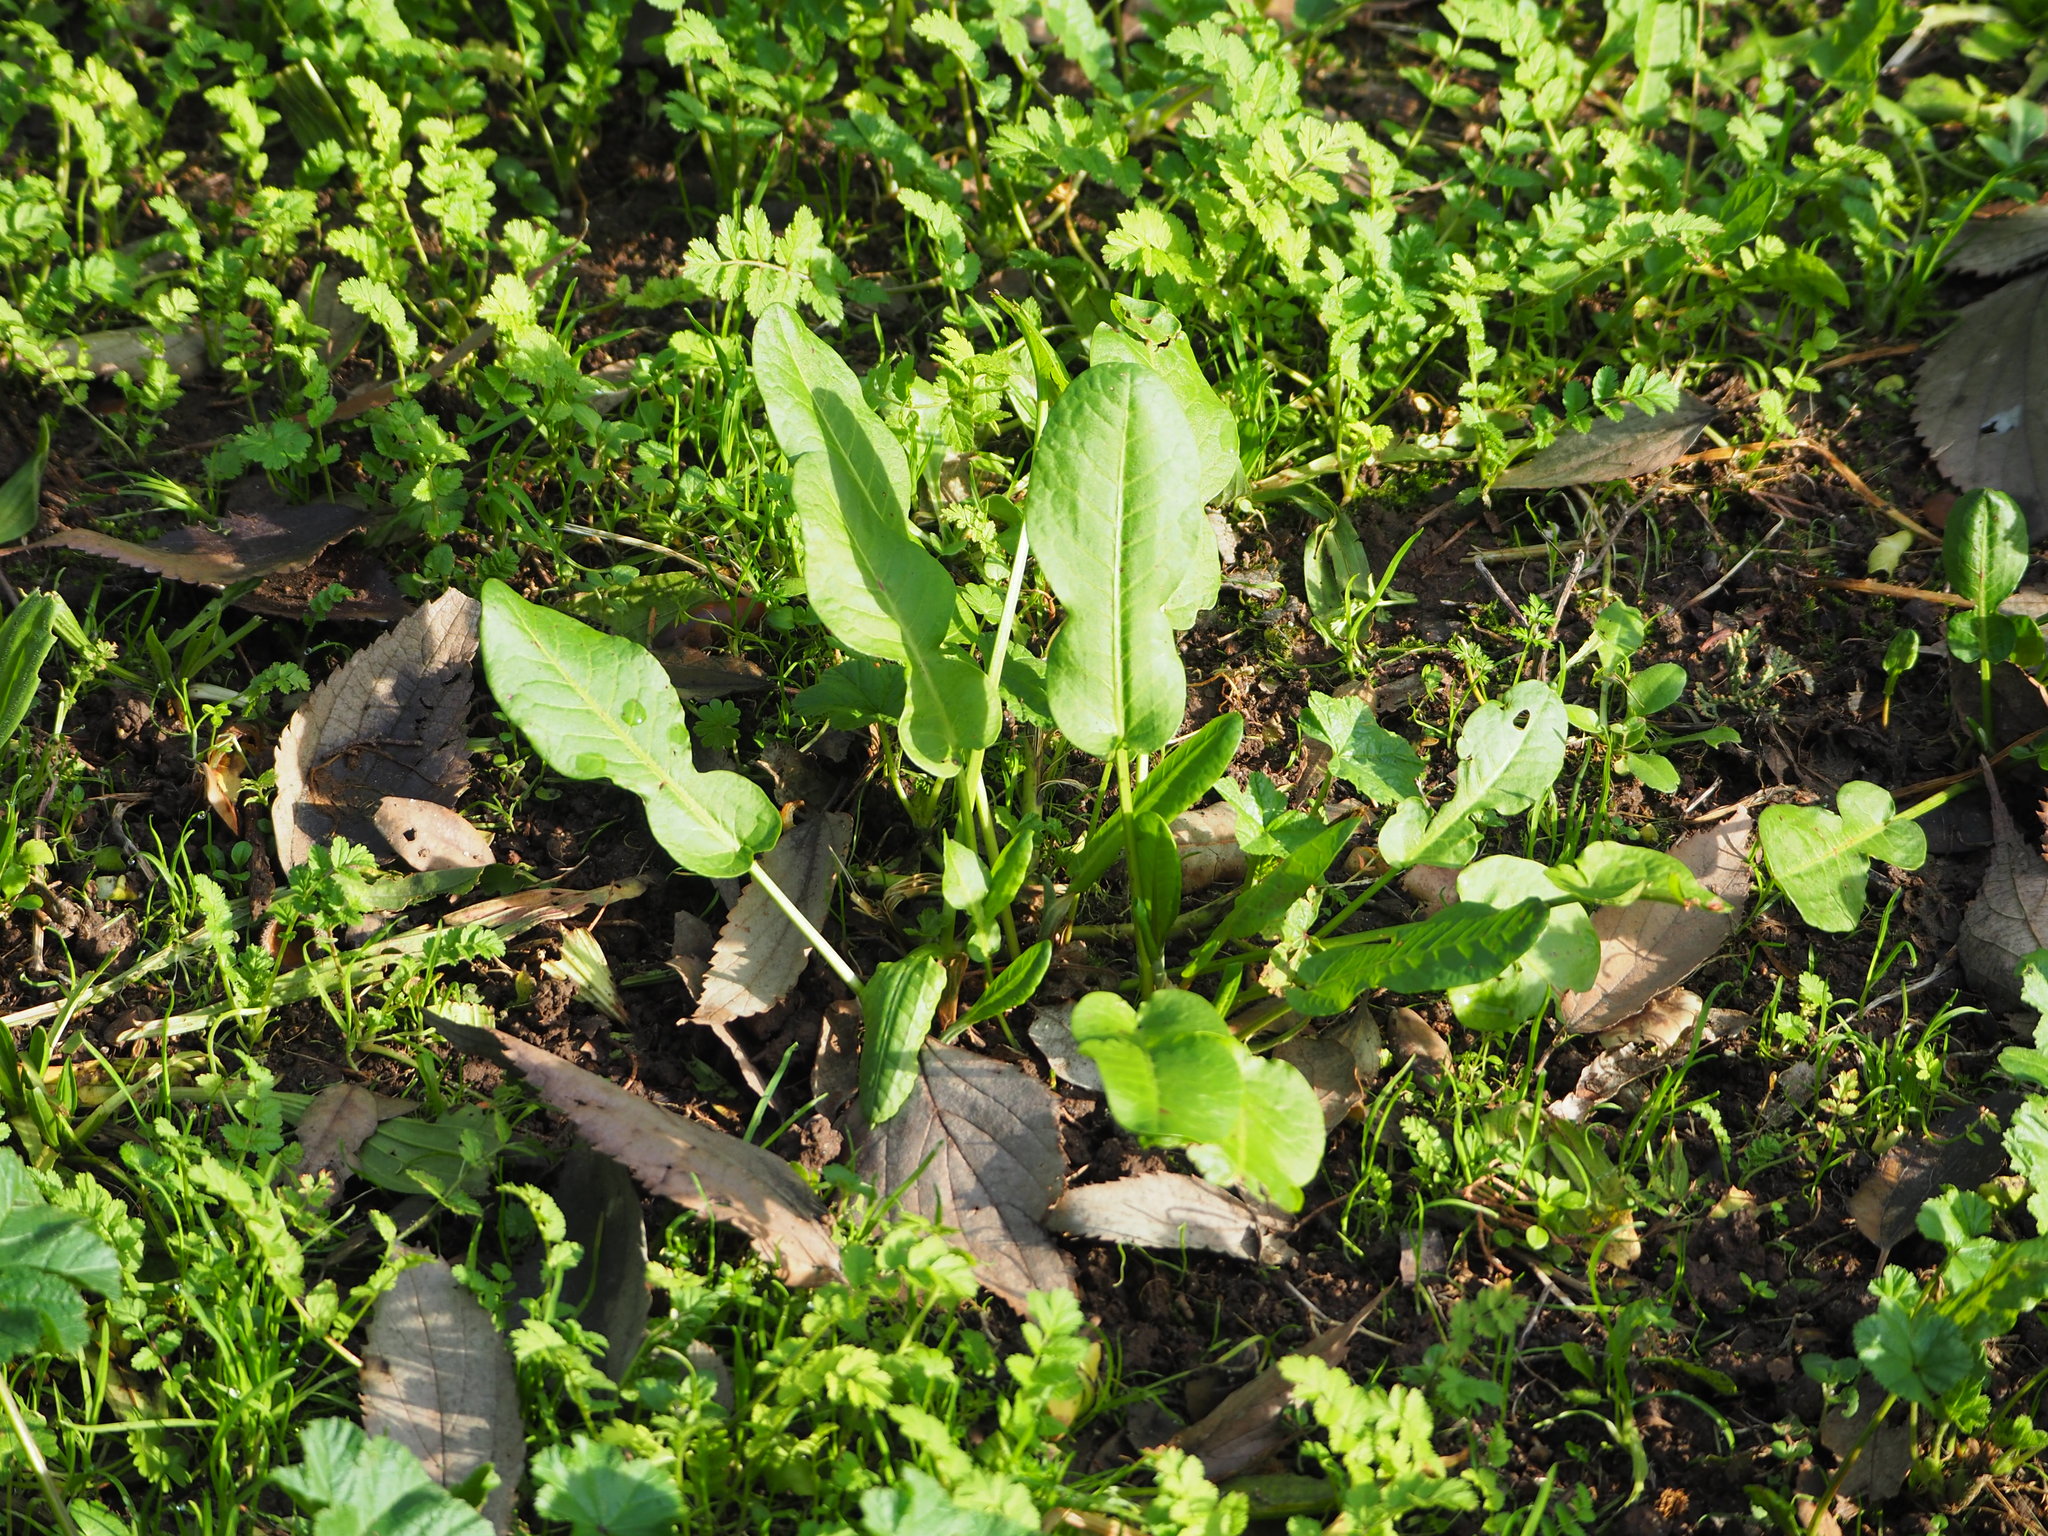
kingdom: Plantae
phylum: Tracheophyta
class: Magnoliopsida
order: Caryophyllales
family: Polygonaceae
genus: Rumex
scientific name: Rumex pulcher
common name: Fiddle dock
